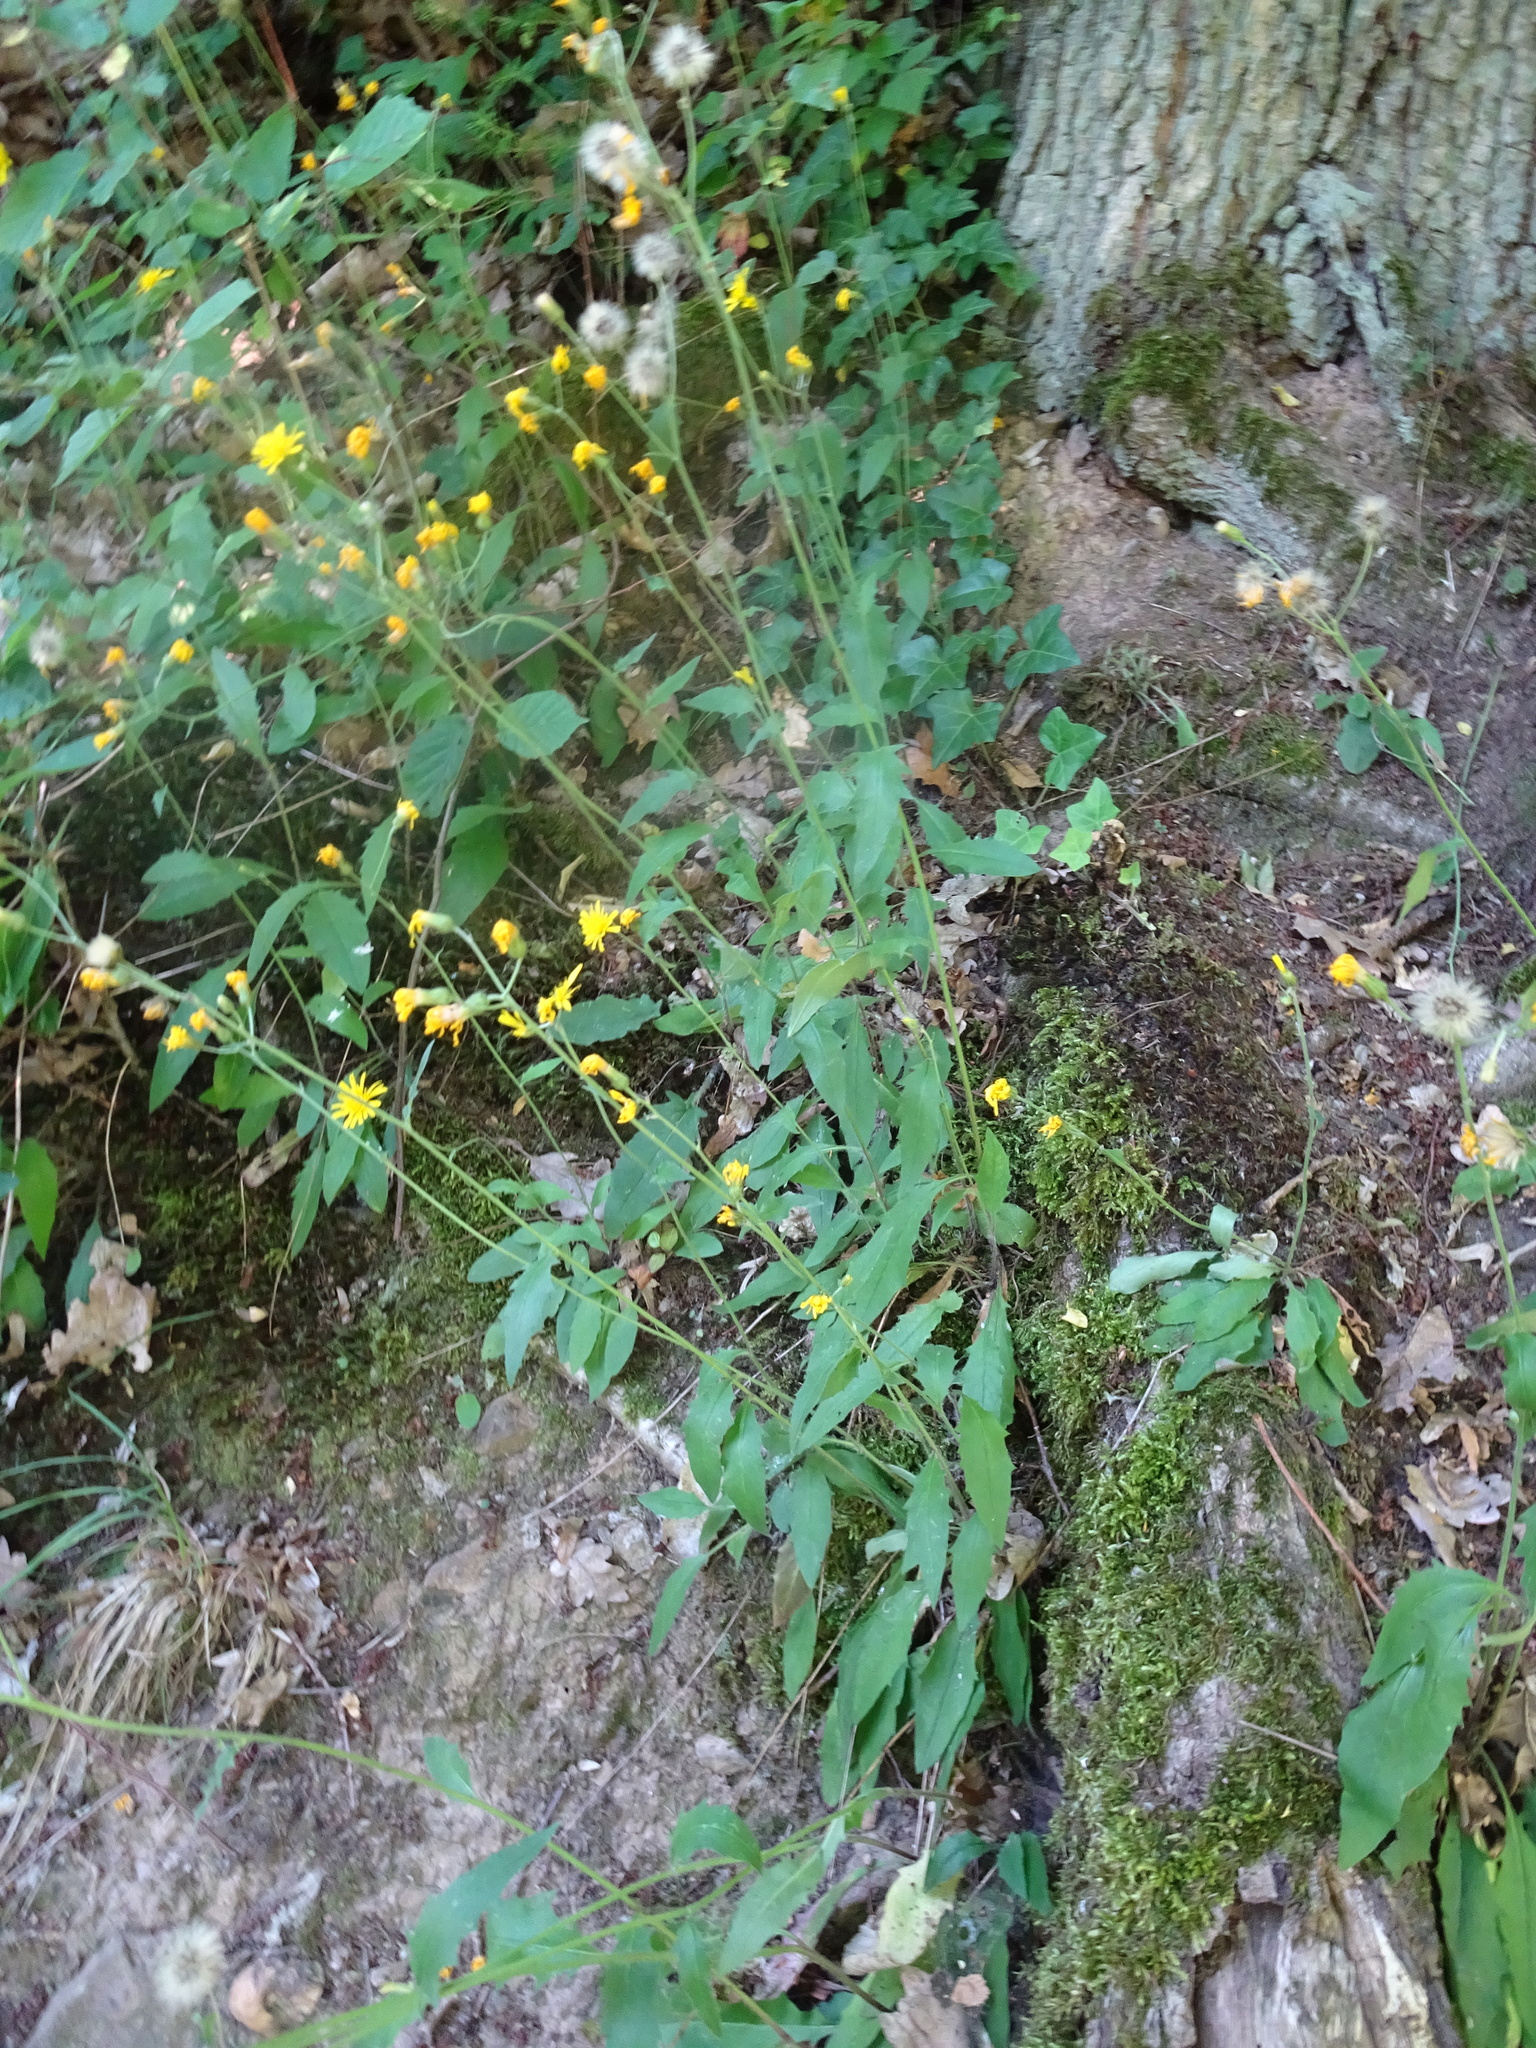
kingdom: Plantae
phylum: Tracheophyta
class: Magnoliopsida
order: Asterales
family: Asteraceae
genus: Hieracium
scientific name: Hieracium lachenalii
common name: Common hawkweed
